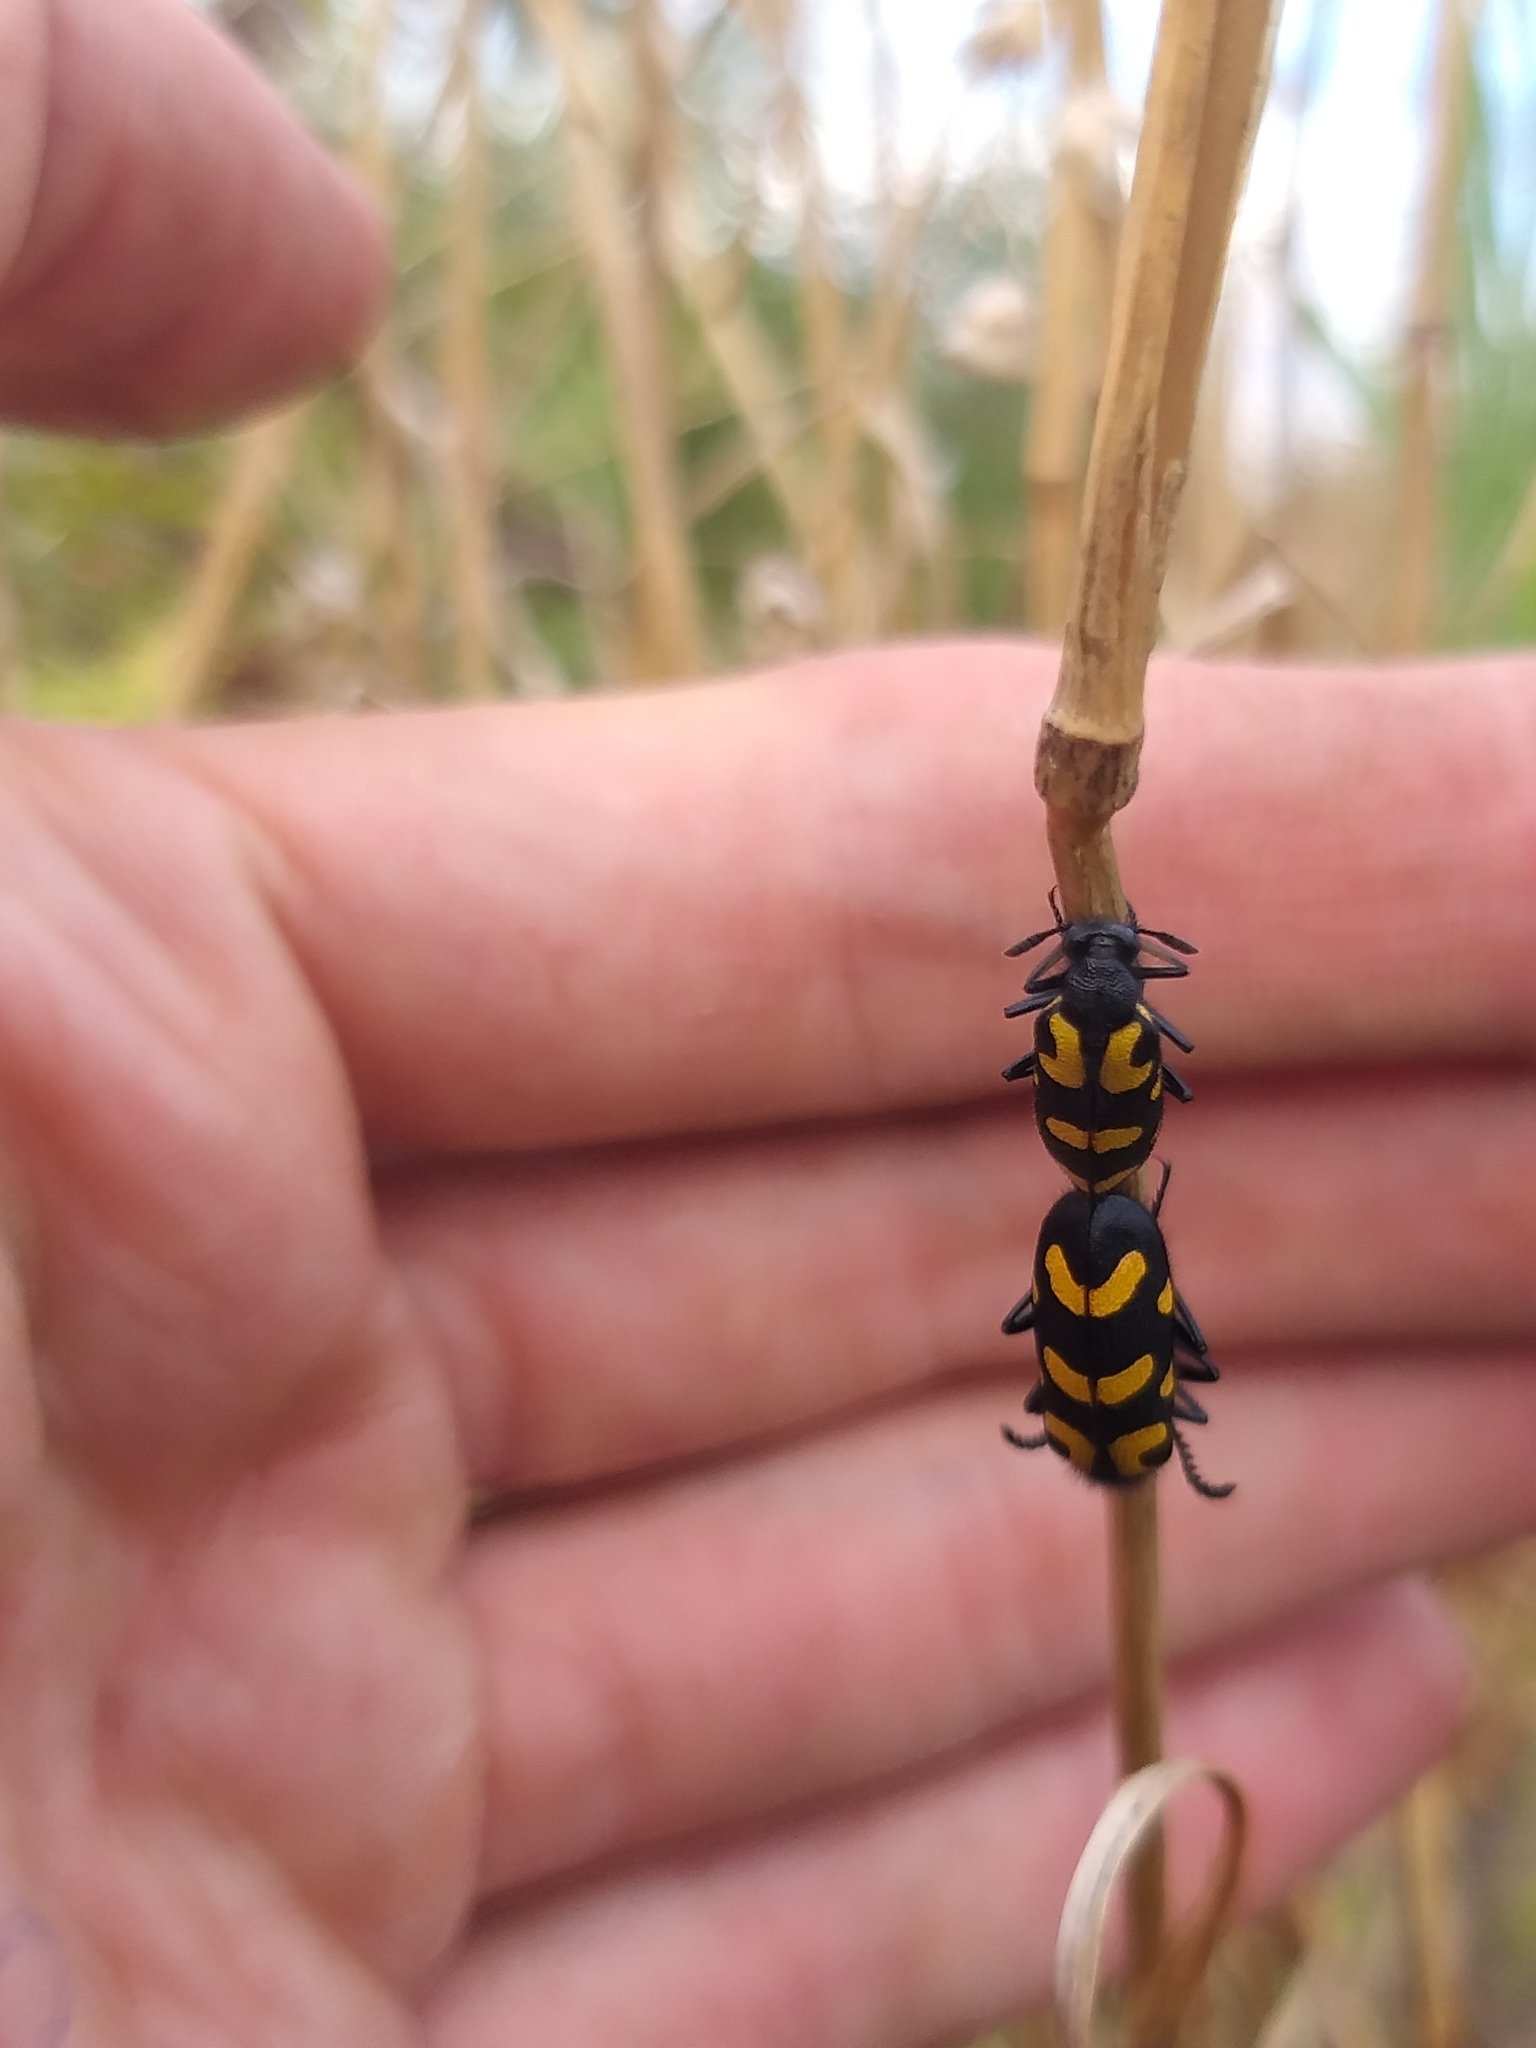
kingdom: Animalia
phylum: Arthropoda
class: Insecta
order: Coleoptera
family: Meloidae
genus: Ceroctis
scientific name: Ceroctis capensis
